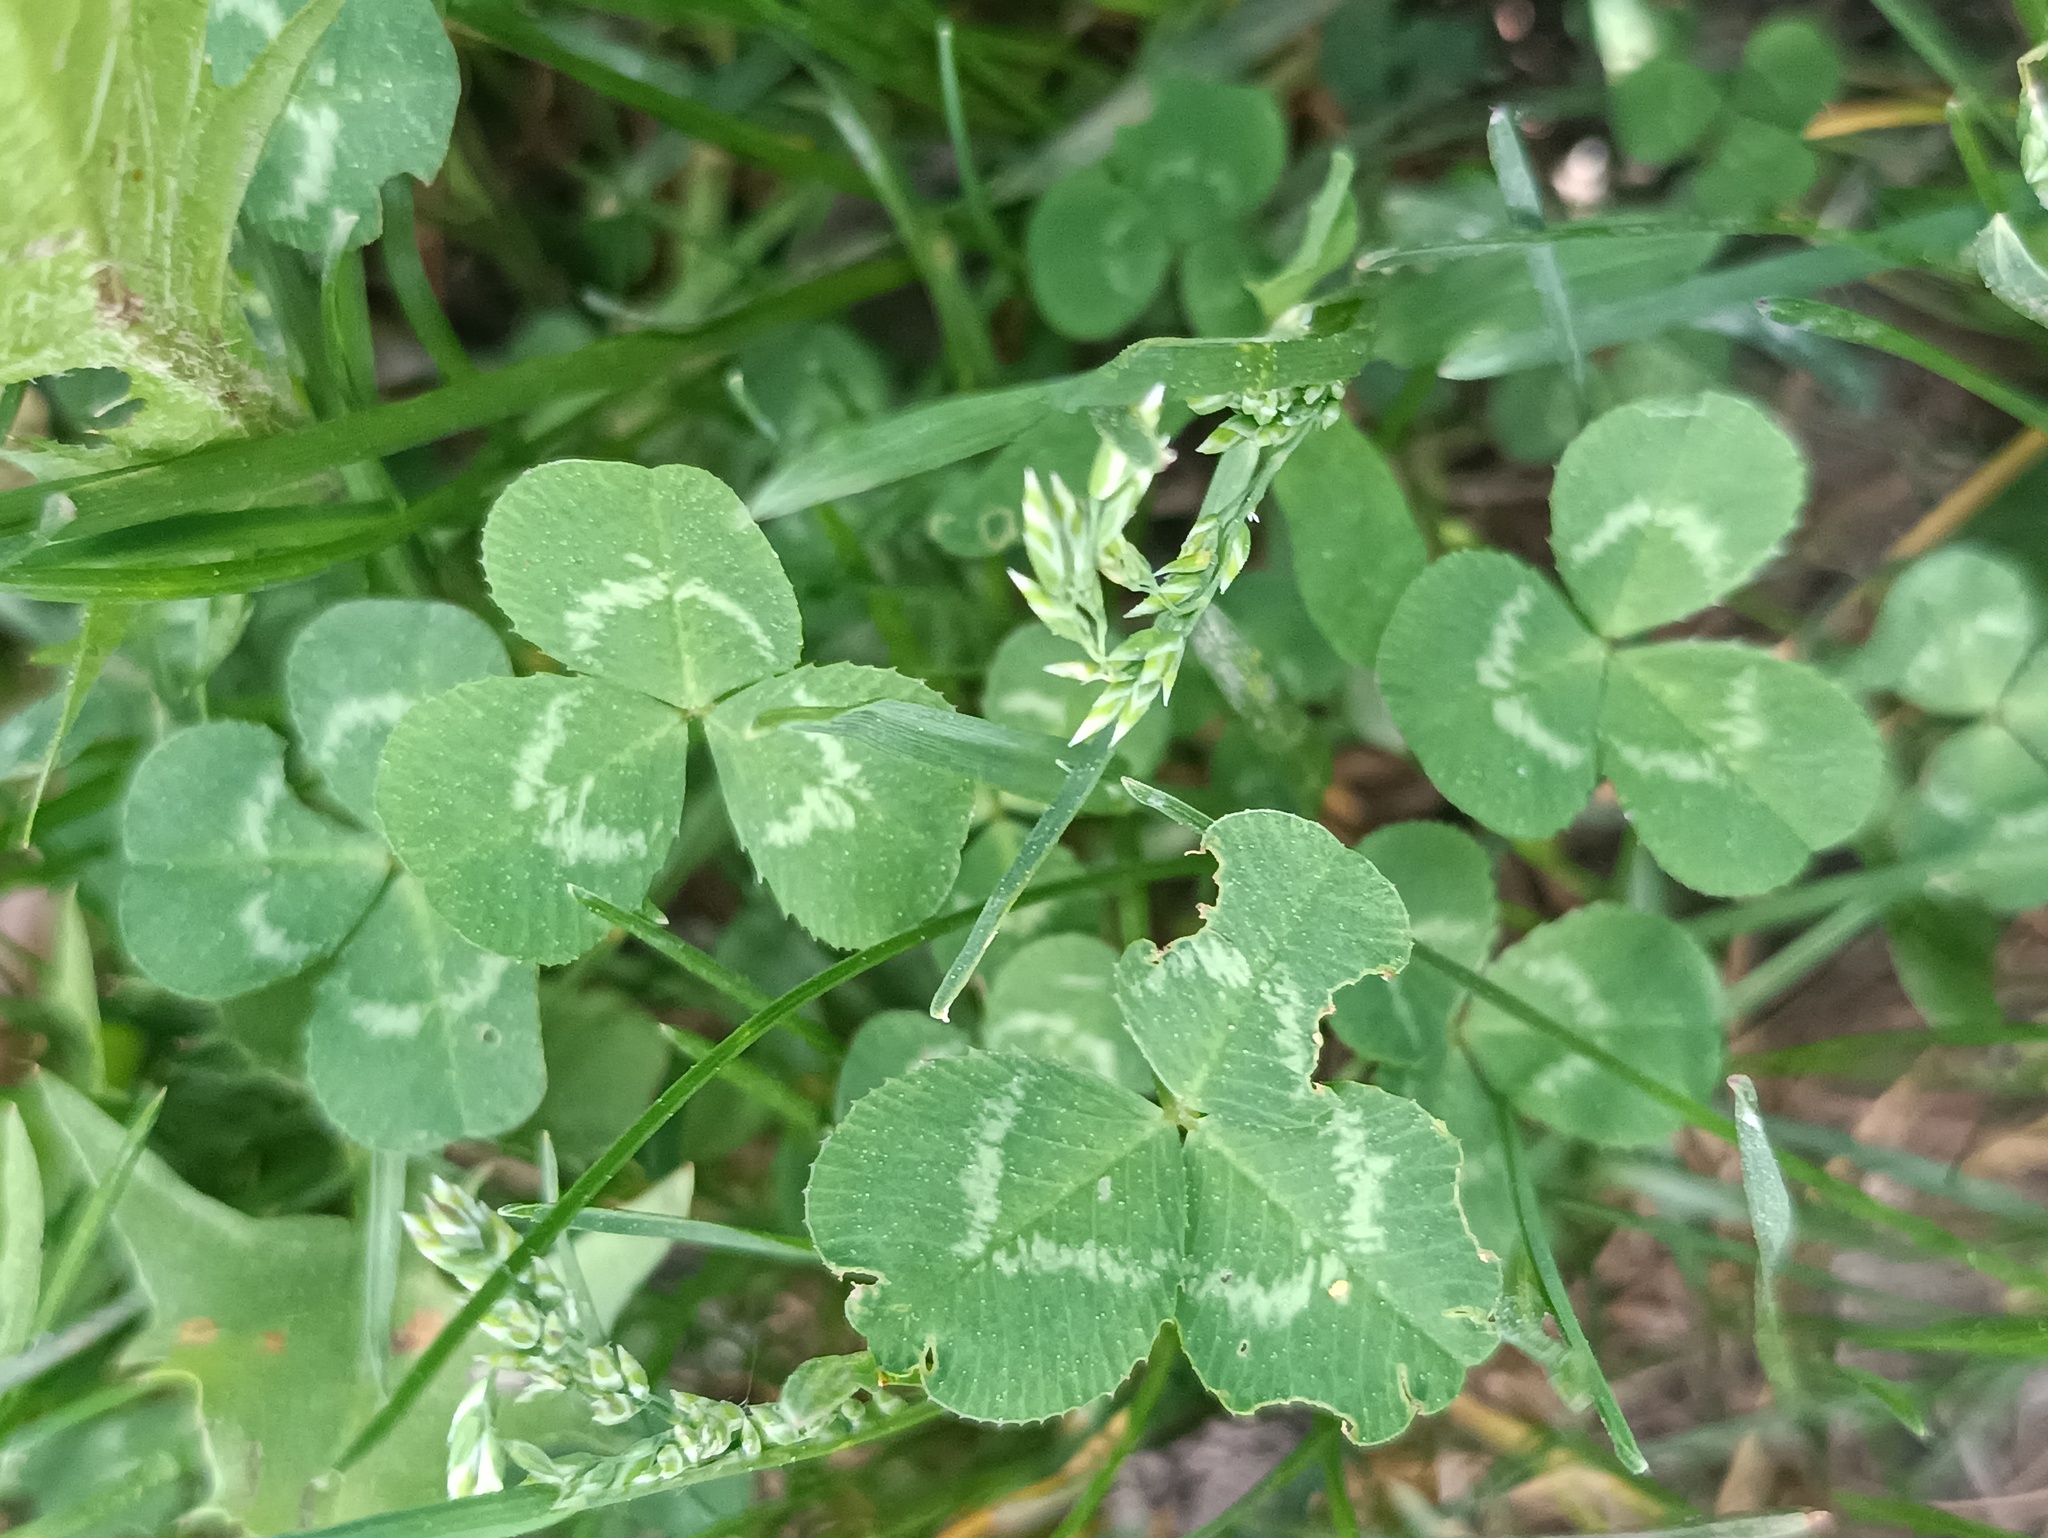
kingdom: Plantae
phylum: Tracheophyta
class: Magnoliopsida
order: Fabales
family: Fabaceae
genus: Trifolium
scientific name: Trifolium repens
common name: White clover
